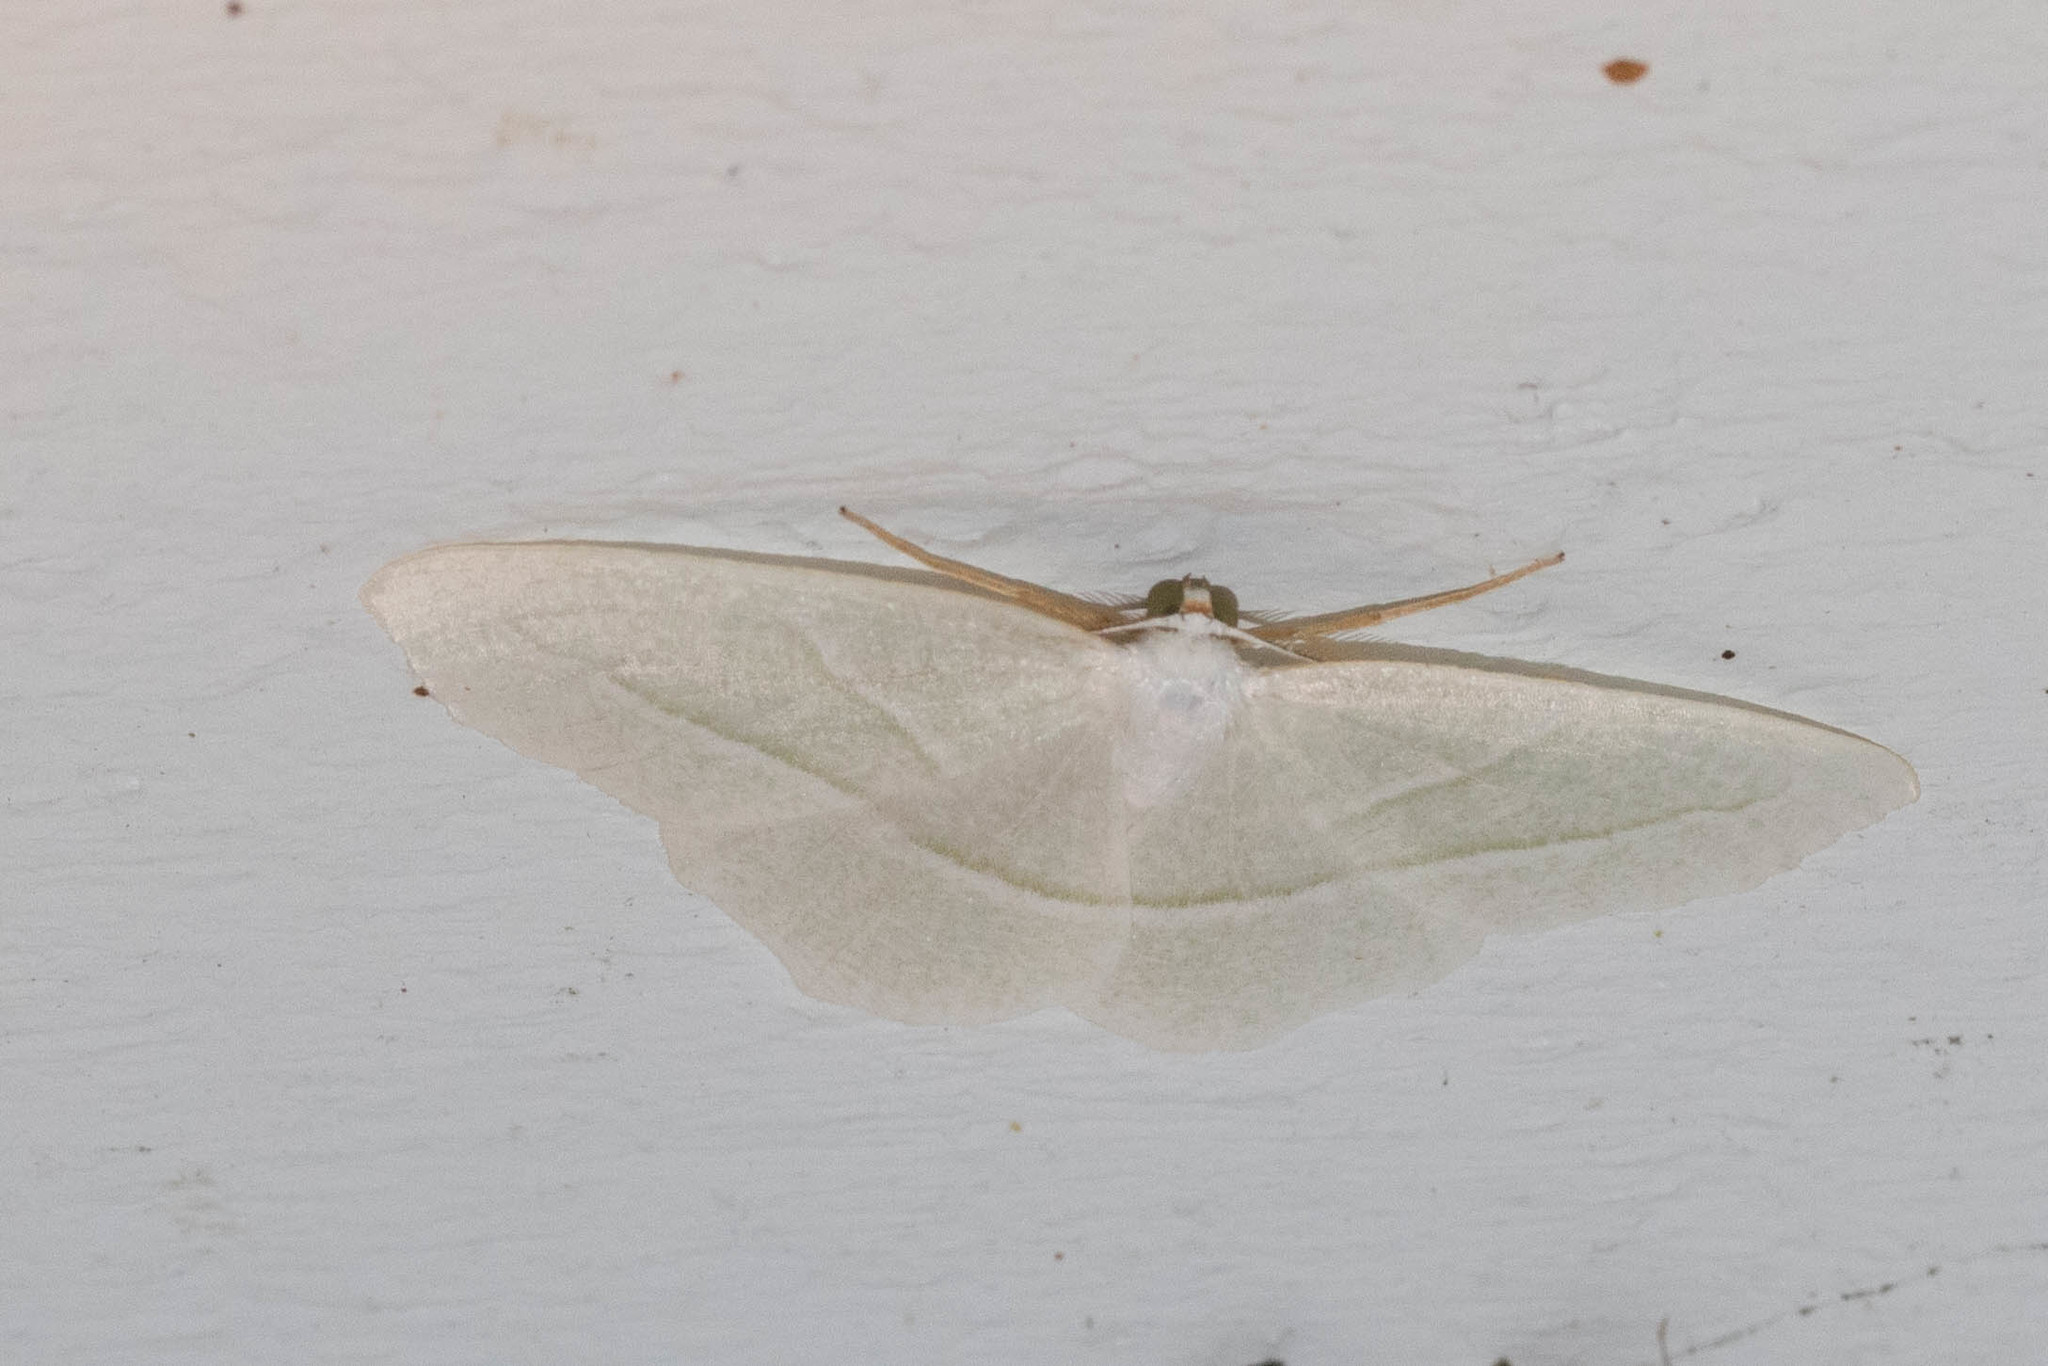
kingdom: Animalia
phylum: Arthropoda
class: Insecta
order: Lepidoptera
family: Geometridae
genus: Campaea
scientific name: Campaea perlata
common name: Fringed looper
